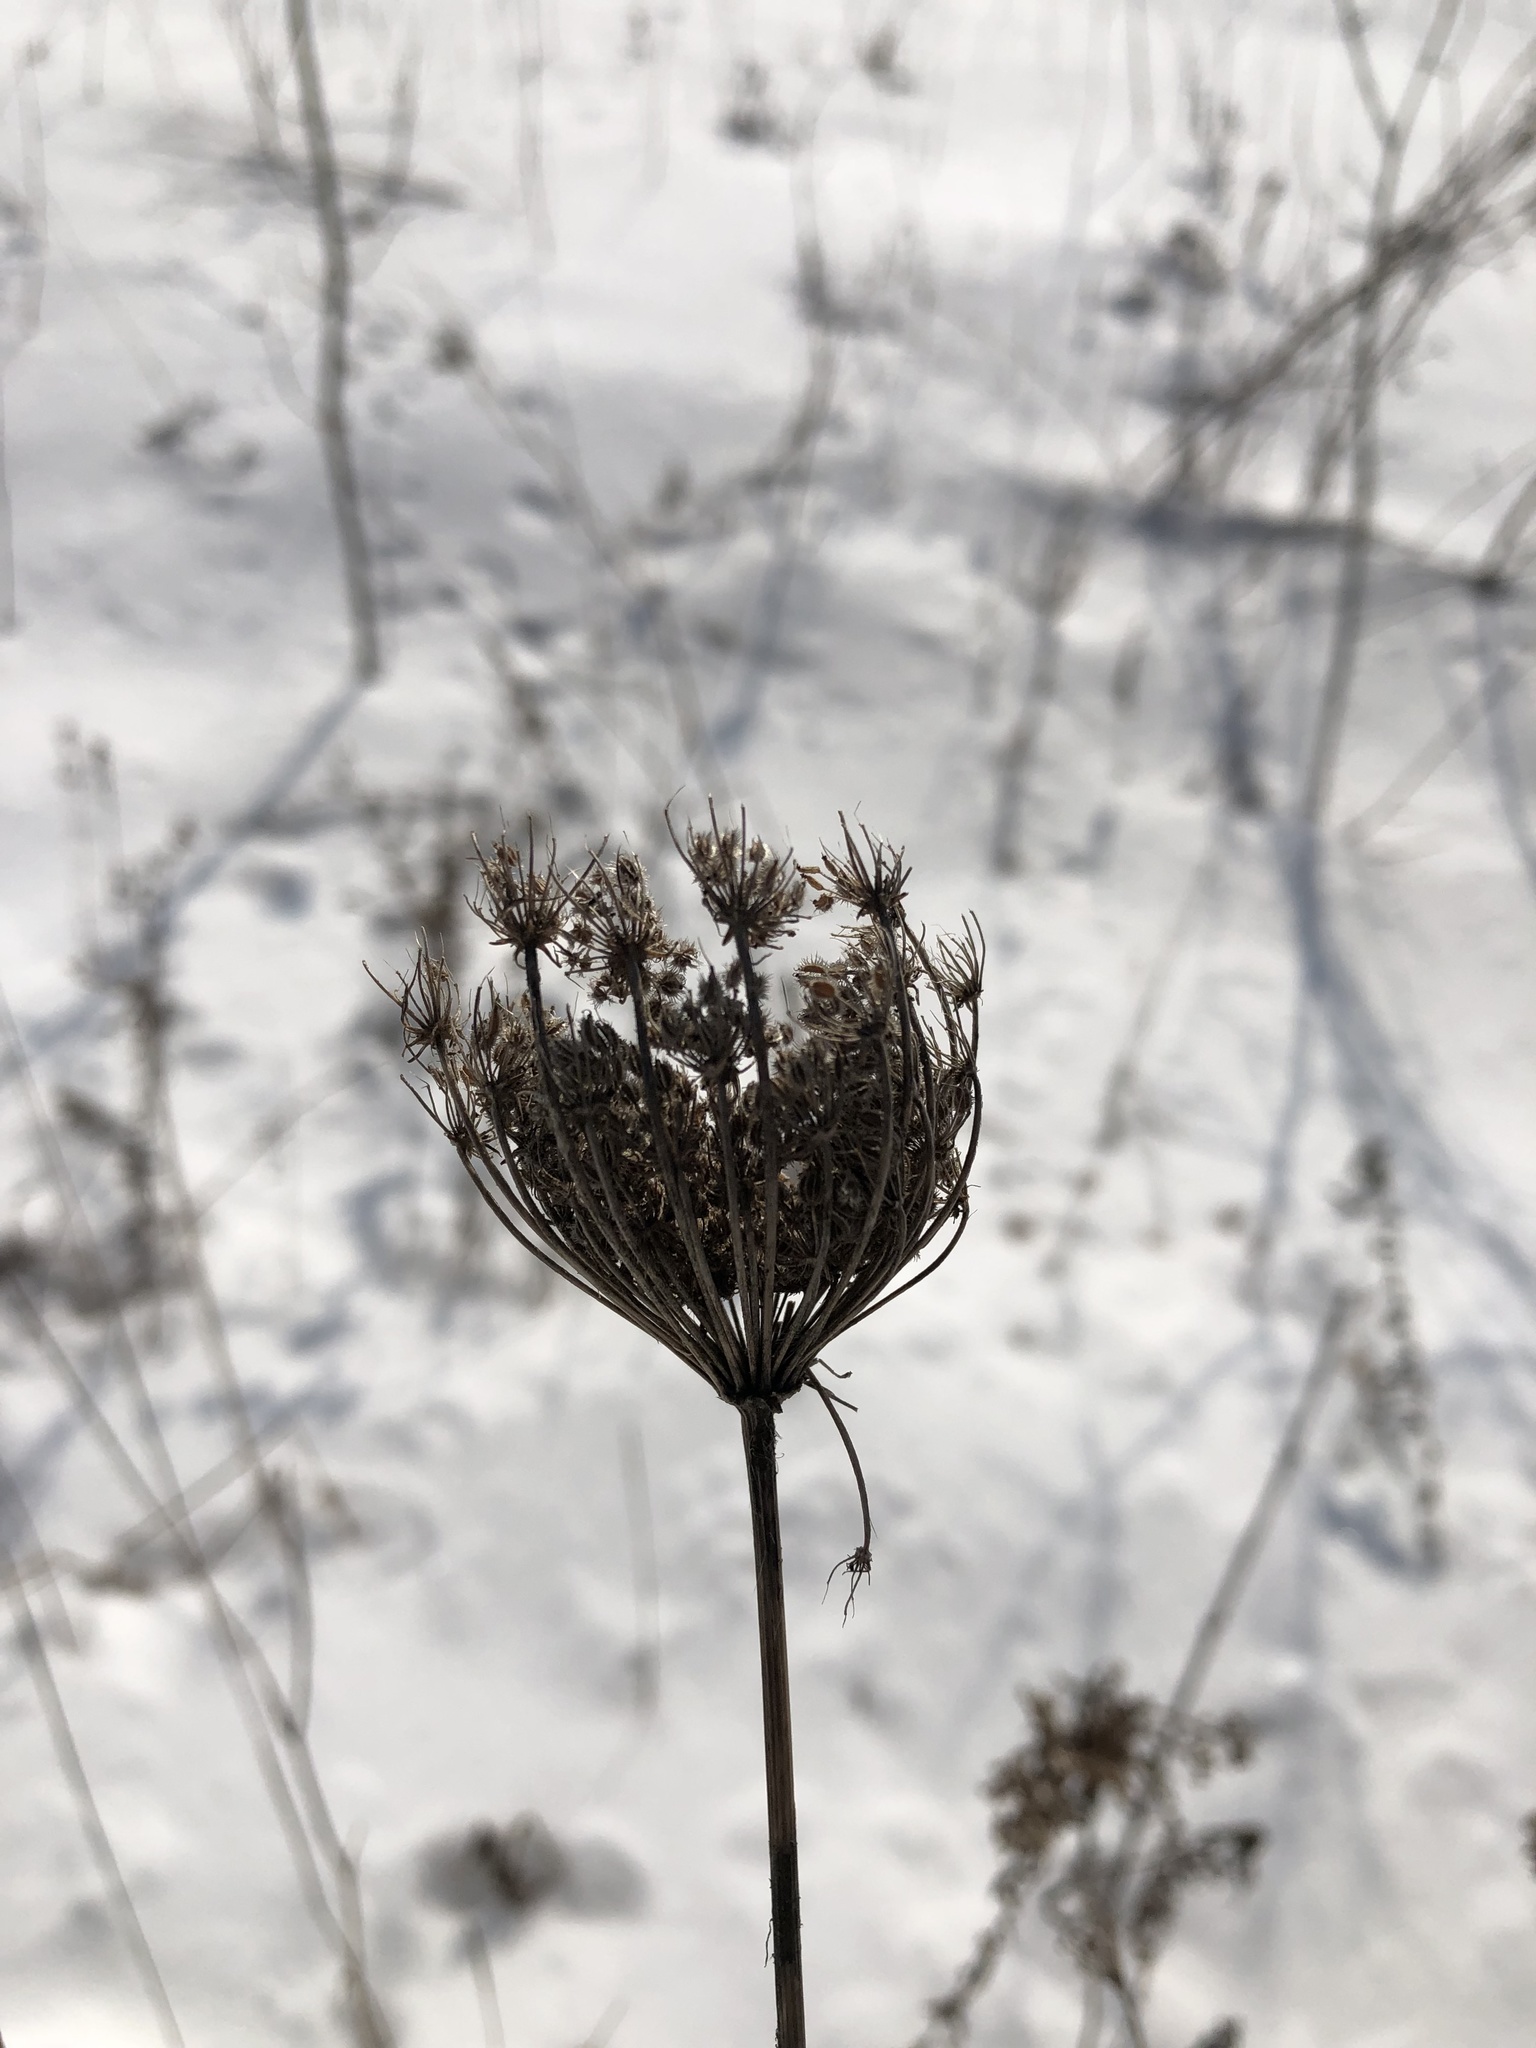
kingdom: Plantae
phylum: Tracheophyta
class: Magnoliopsida
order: Apiales
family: Apiaceae
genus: Daucus
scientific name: Daucus carota
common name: Wild carrot
